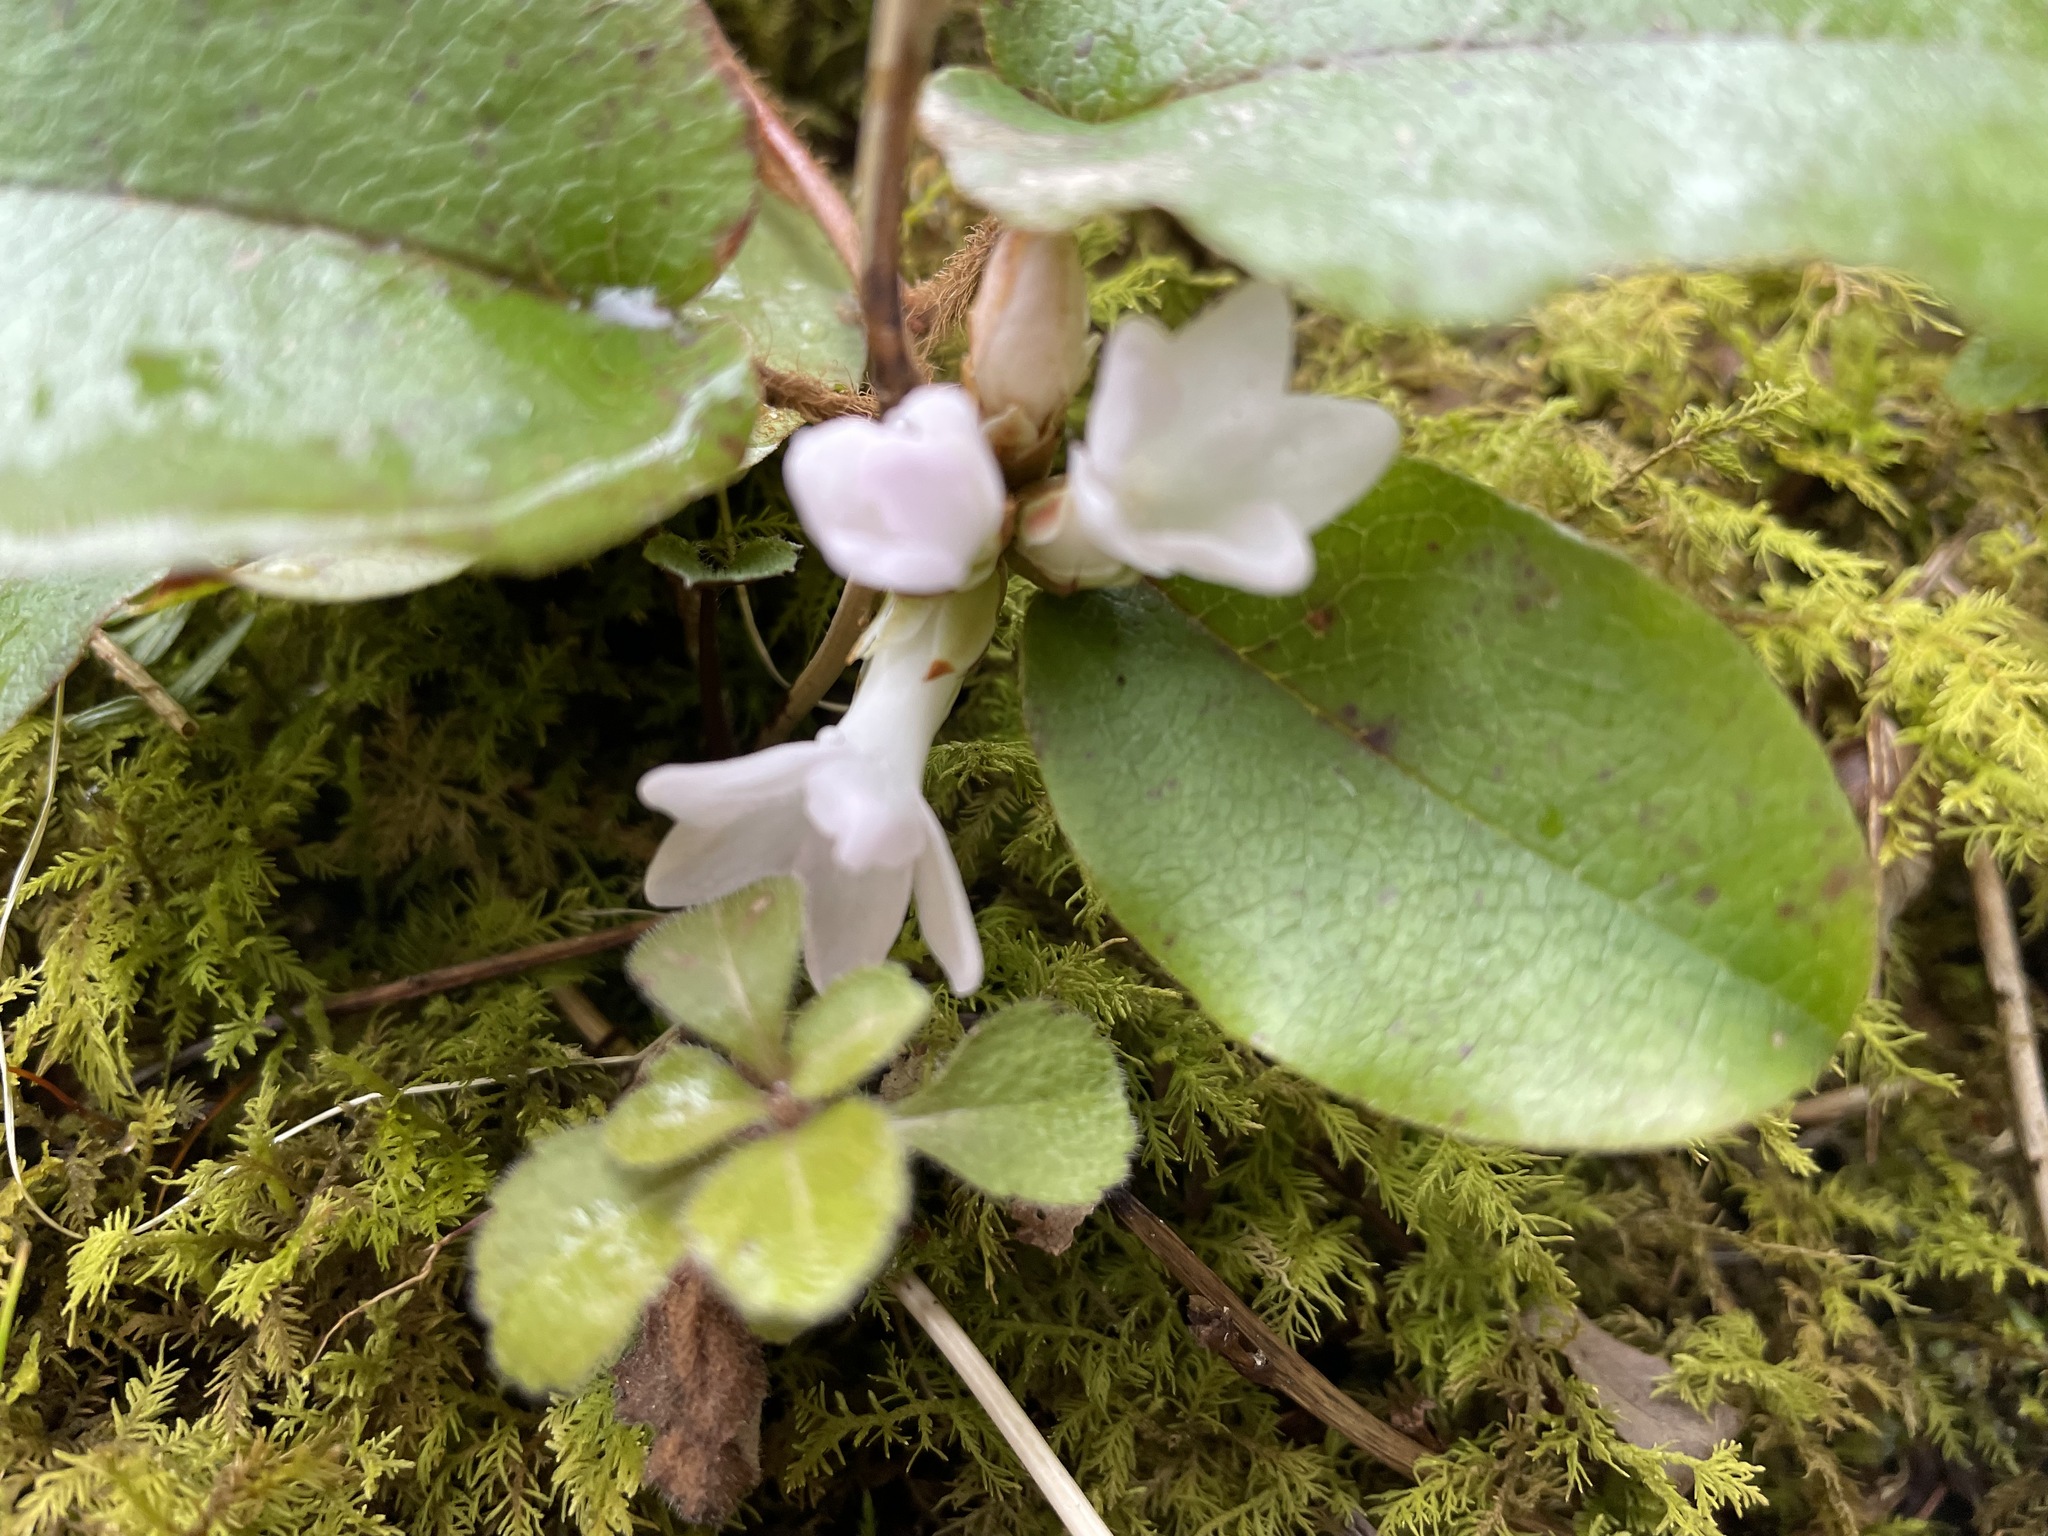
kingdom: Plantae
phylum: Tracheophyta
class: Magnoliopsida
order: Ericales
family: Ericaceae
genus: Epigaea
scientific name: Epigaea repens
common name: Gravelroot
